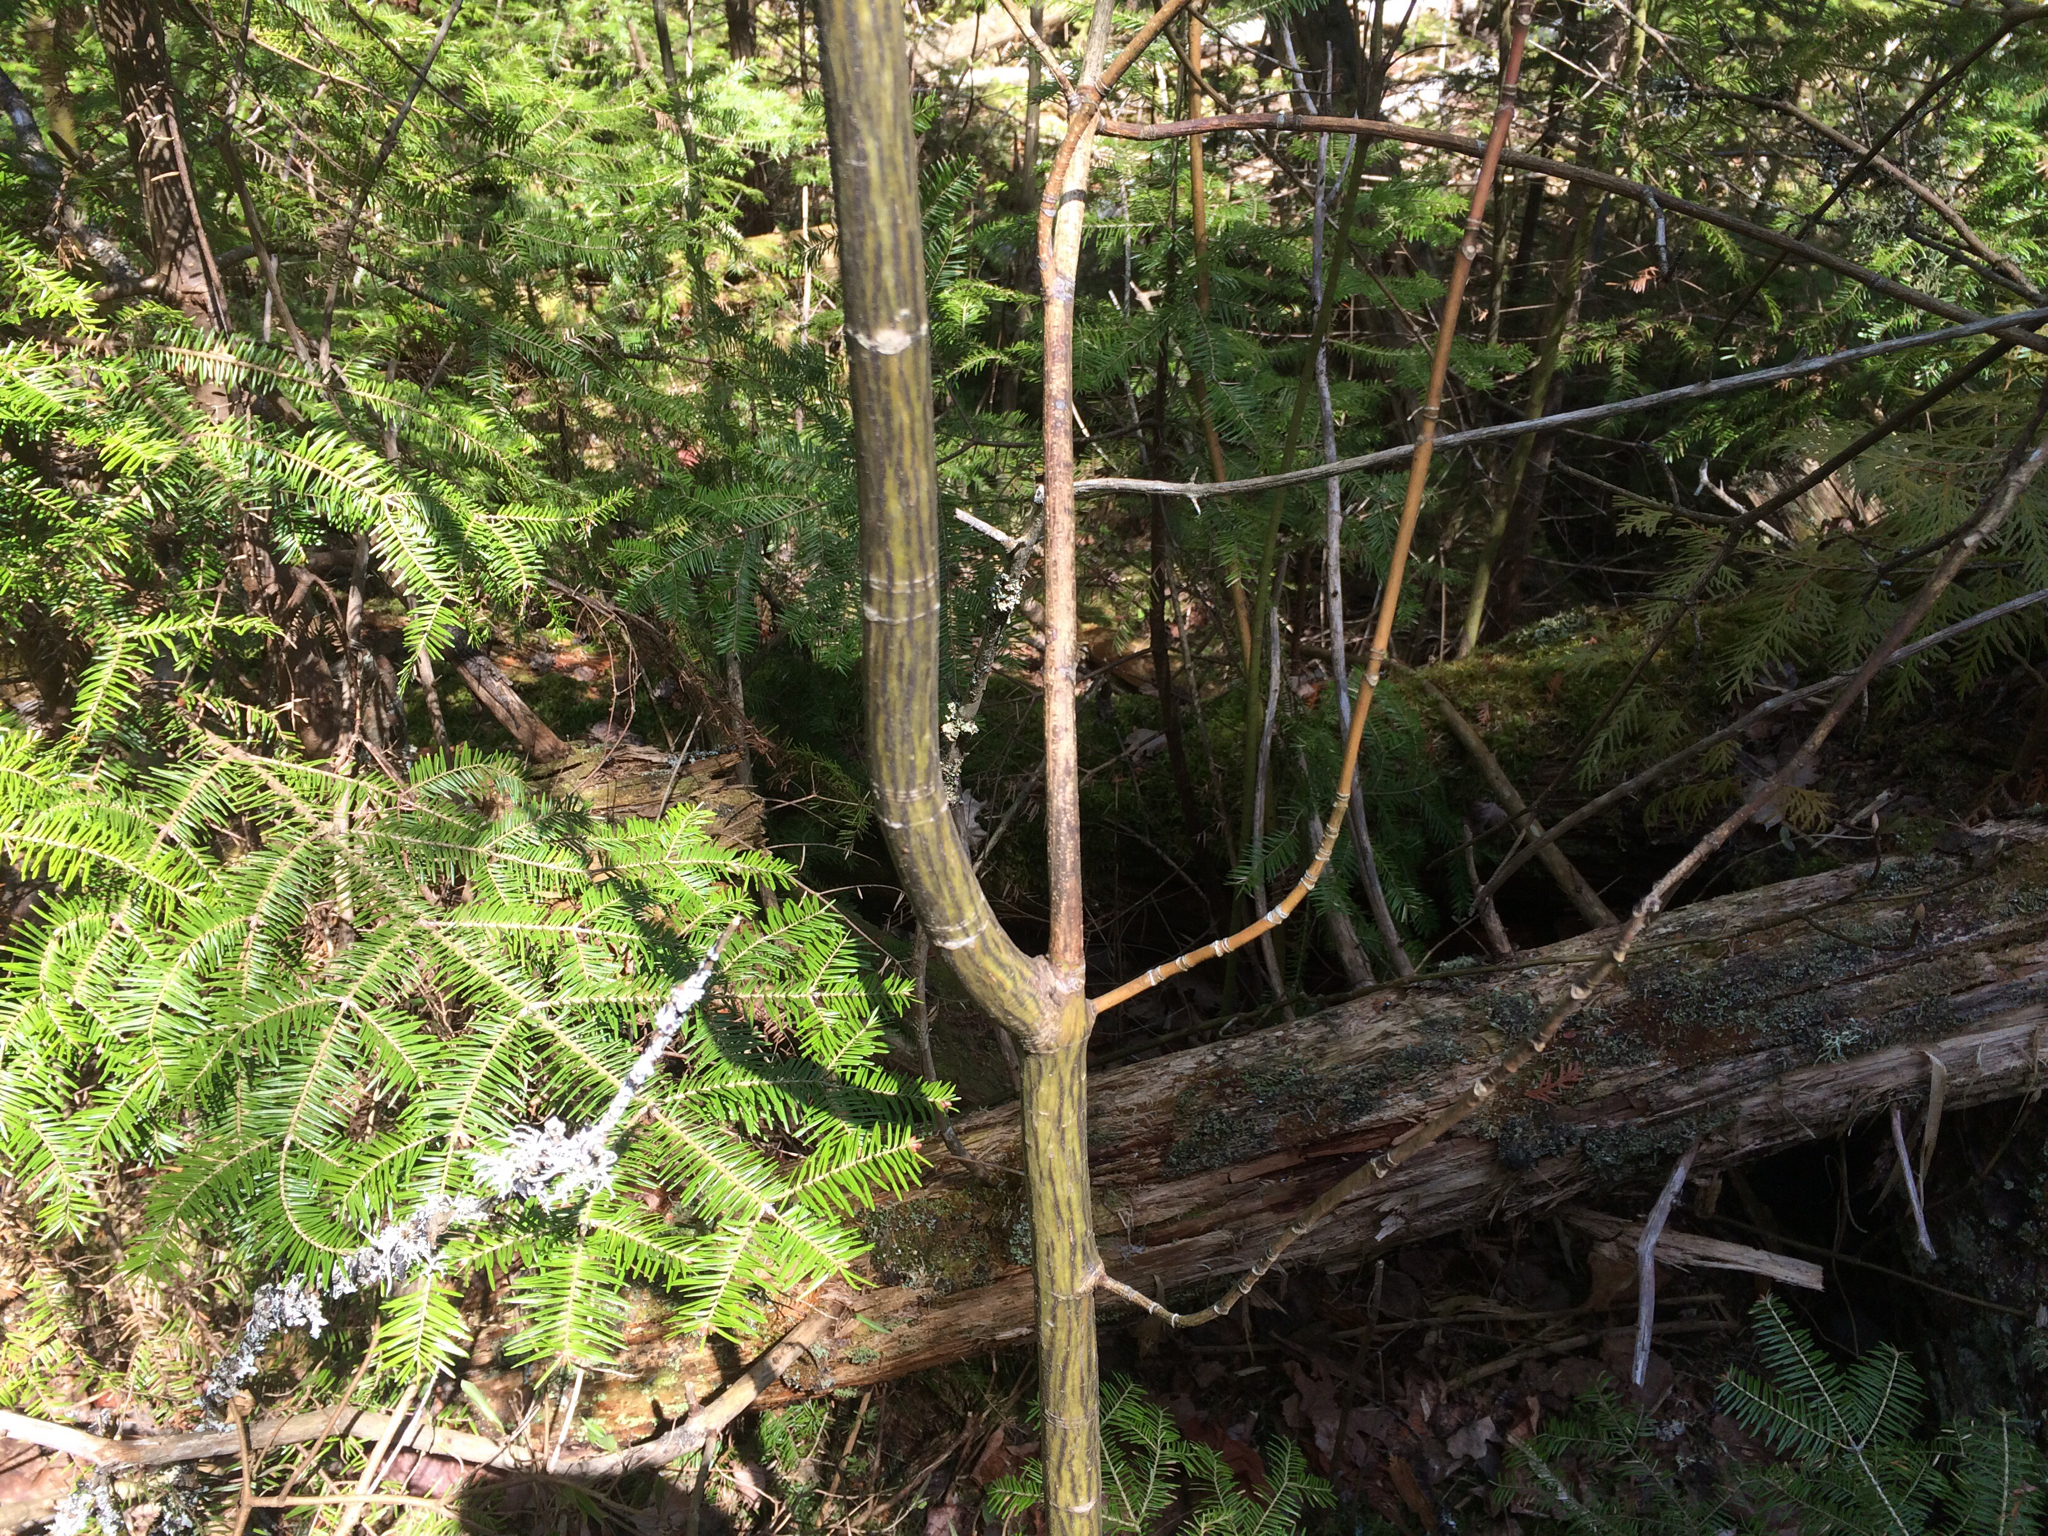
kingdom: Plantae
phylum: Tracheophyta
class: Magnoliopsida
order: Sapindales
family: Sapindaceae
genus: Acer
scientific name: Acer pensylvanicum
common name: Moosewood
